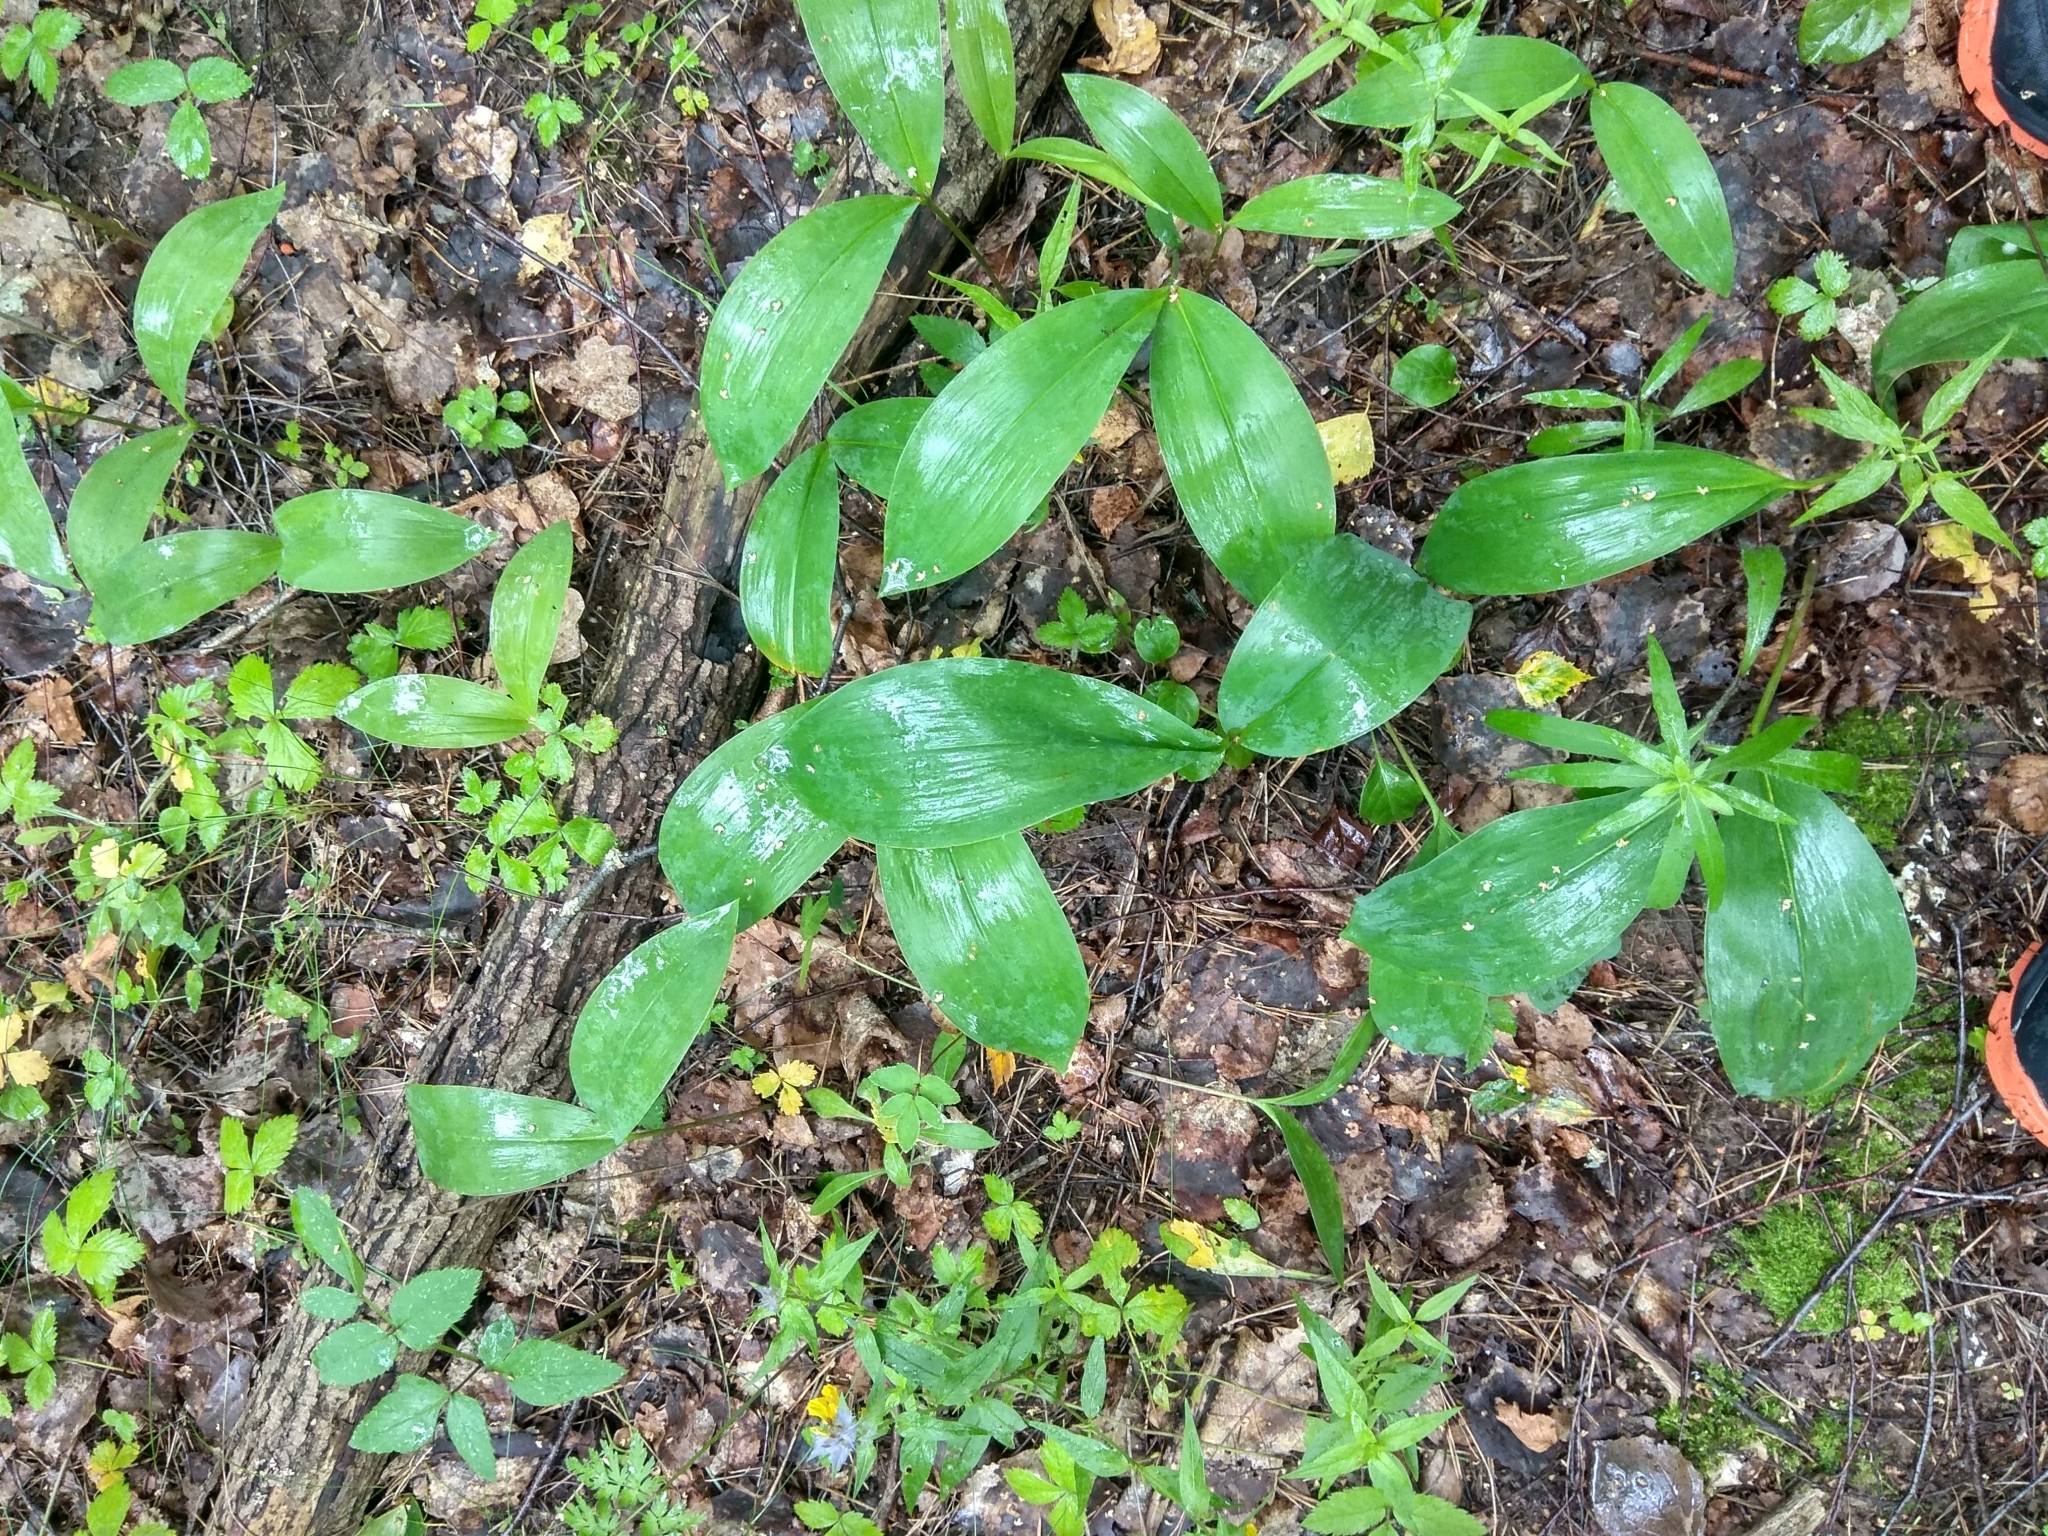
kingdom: Plantae
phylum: Tracheophyta
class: Liliopsida
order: Asparagales
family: Asparagaceae
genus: Convallaria
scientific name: Convallaria majalis
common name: Lily-of-the-valley
